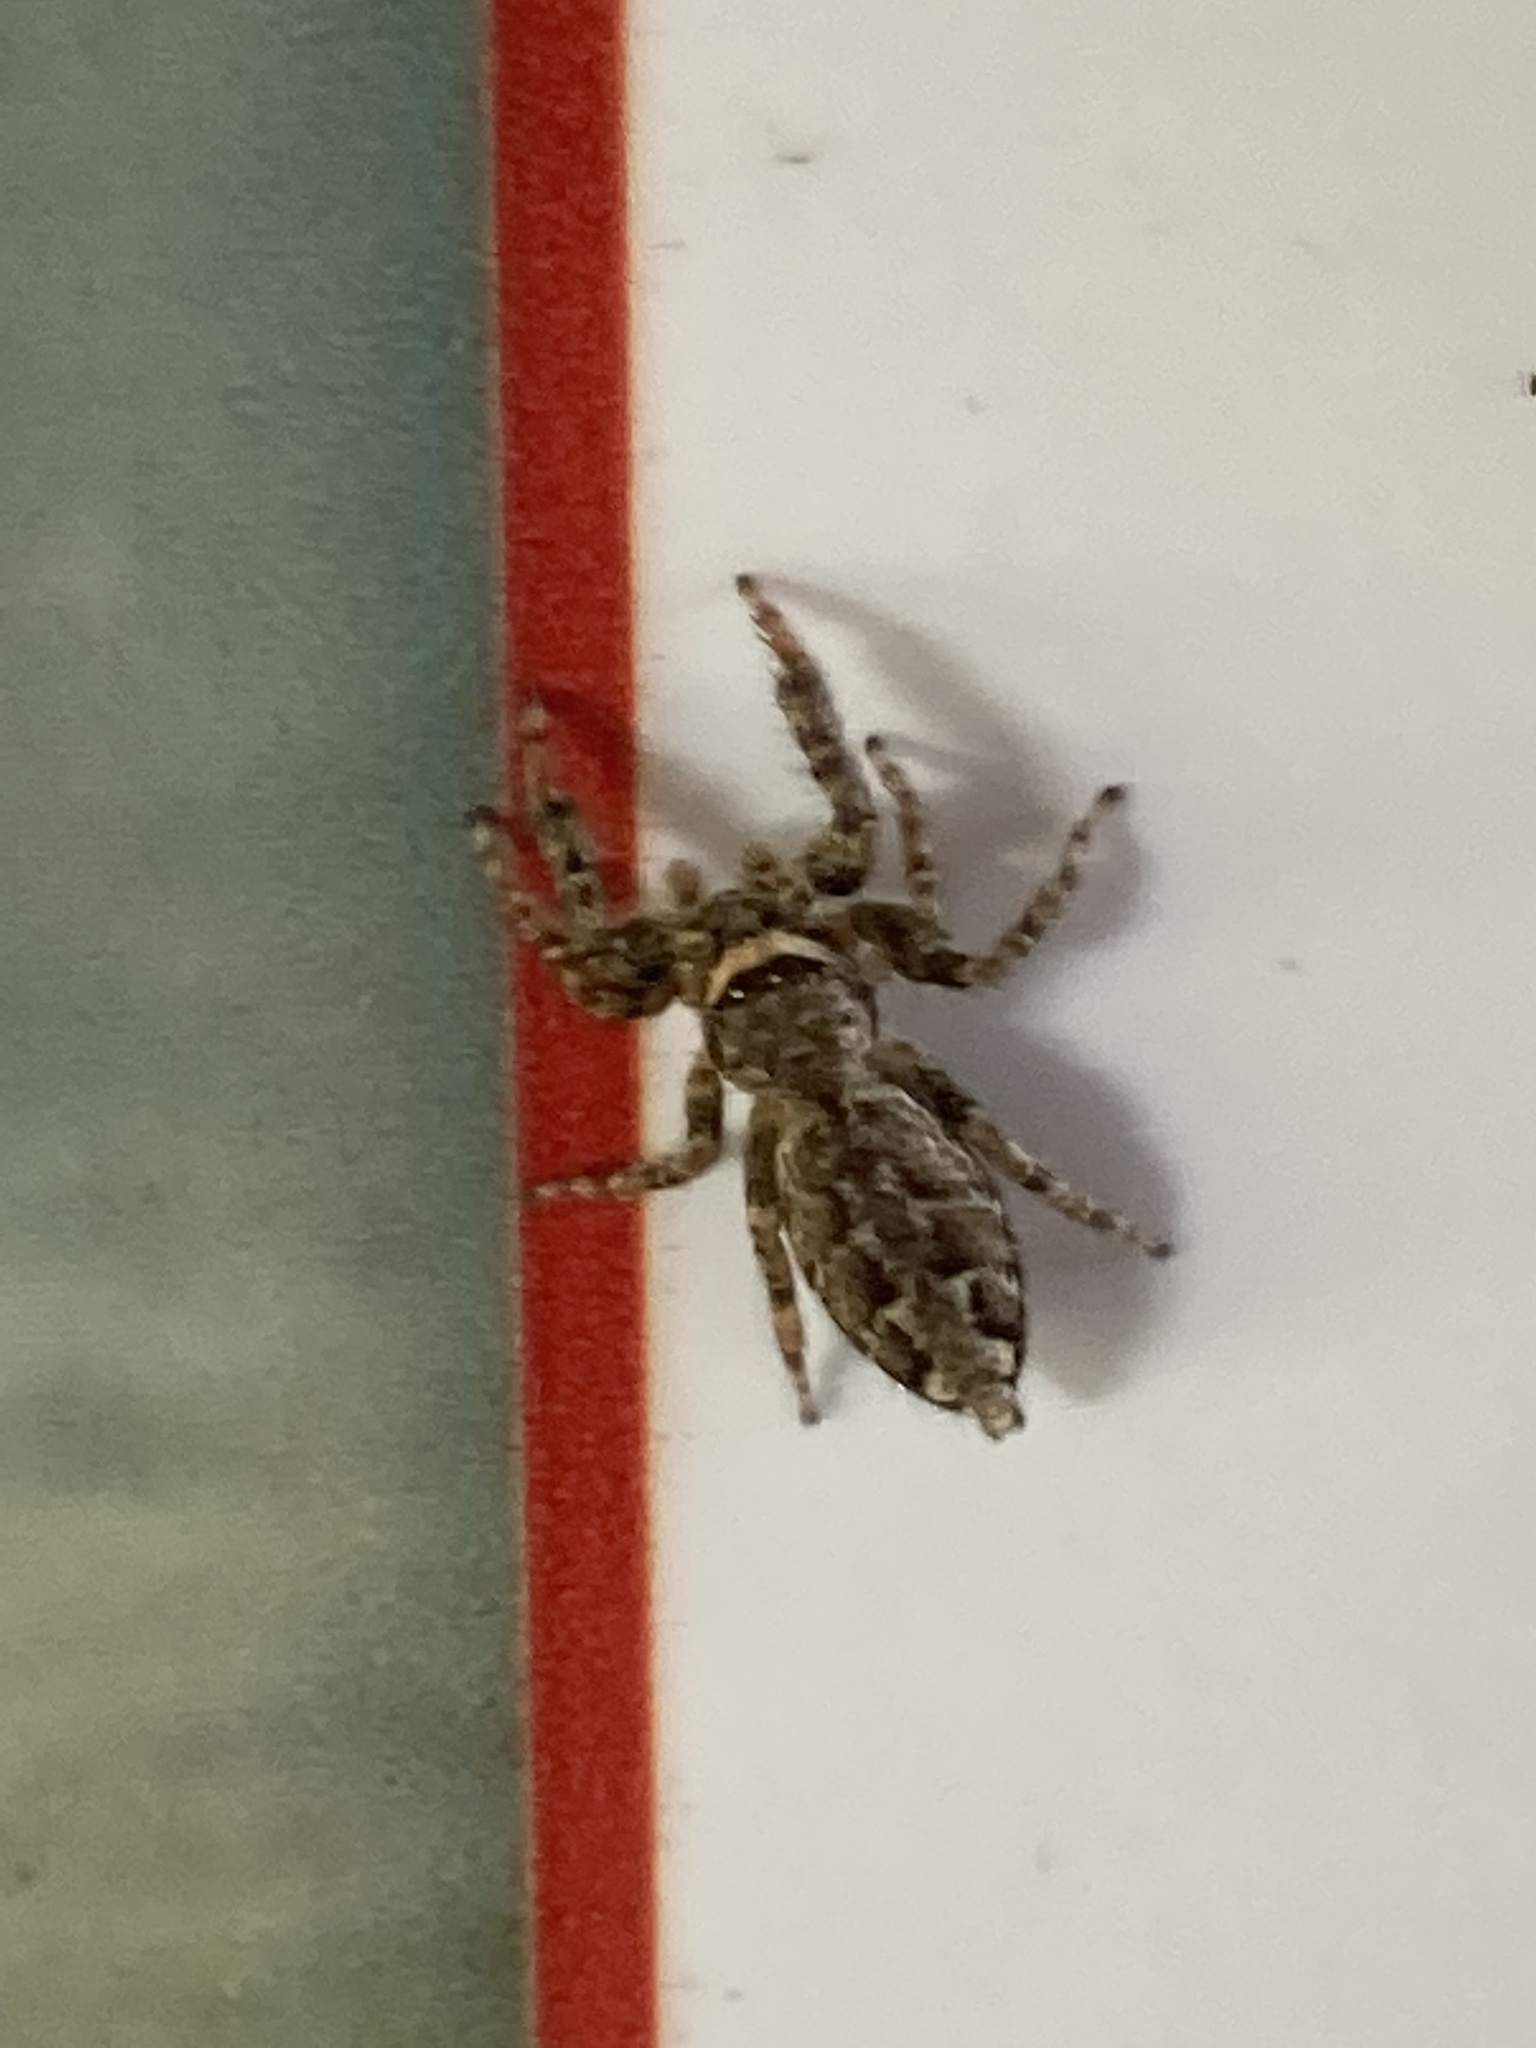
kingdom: Animalia
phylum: Arthropoda
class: Arachnida
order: Araneae
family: Salticidae
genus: Marpissa
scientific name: Marpissa muscosa
